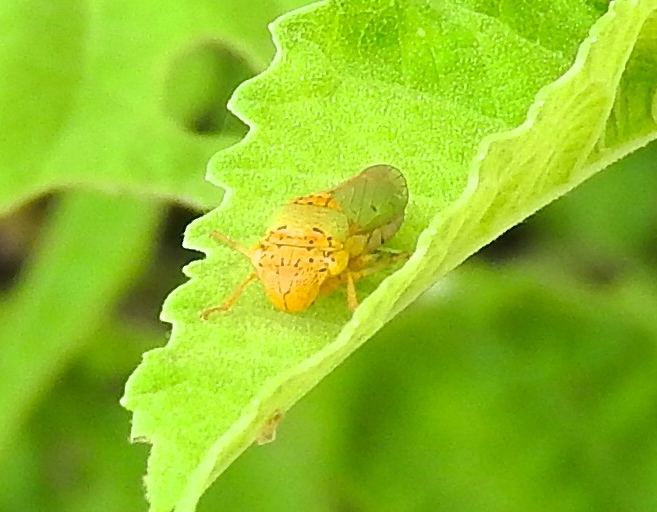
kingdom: Animalia
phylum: Arthropoda
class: Insecta
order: Hemiptera
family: Cicadellidae
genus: Oncometopia
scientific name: Oncometopia
